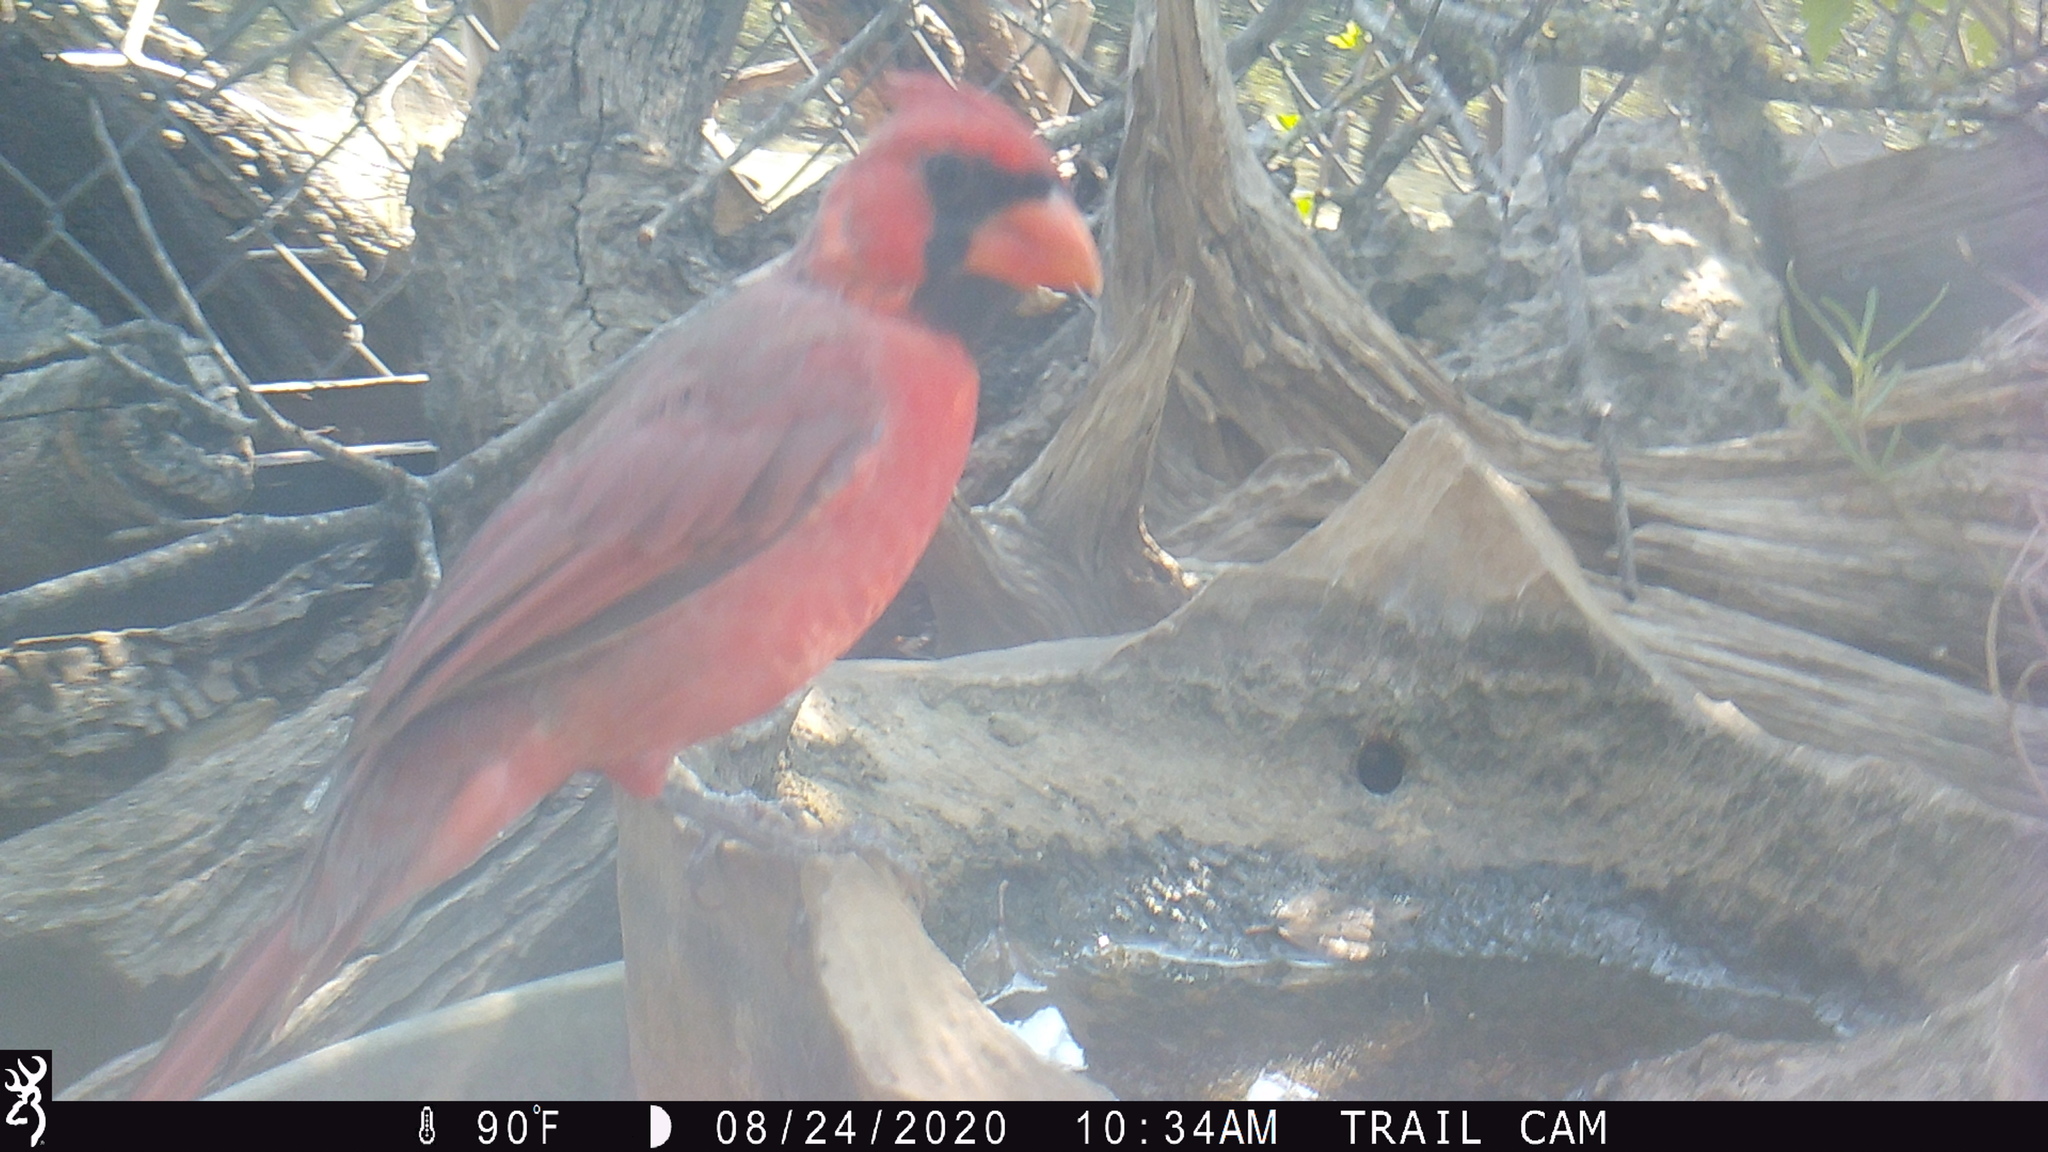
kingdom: Animalia
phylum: Chordata
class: Aves
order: Passeriformes
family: Cardinalidae
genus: Cardinalis
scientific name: Cardinalis cardinalis
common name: Northern cardinal
